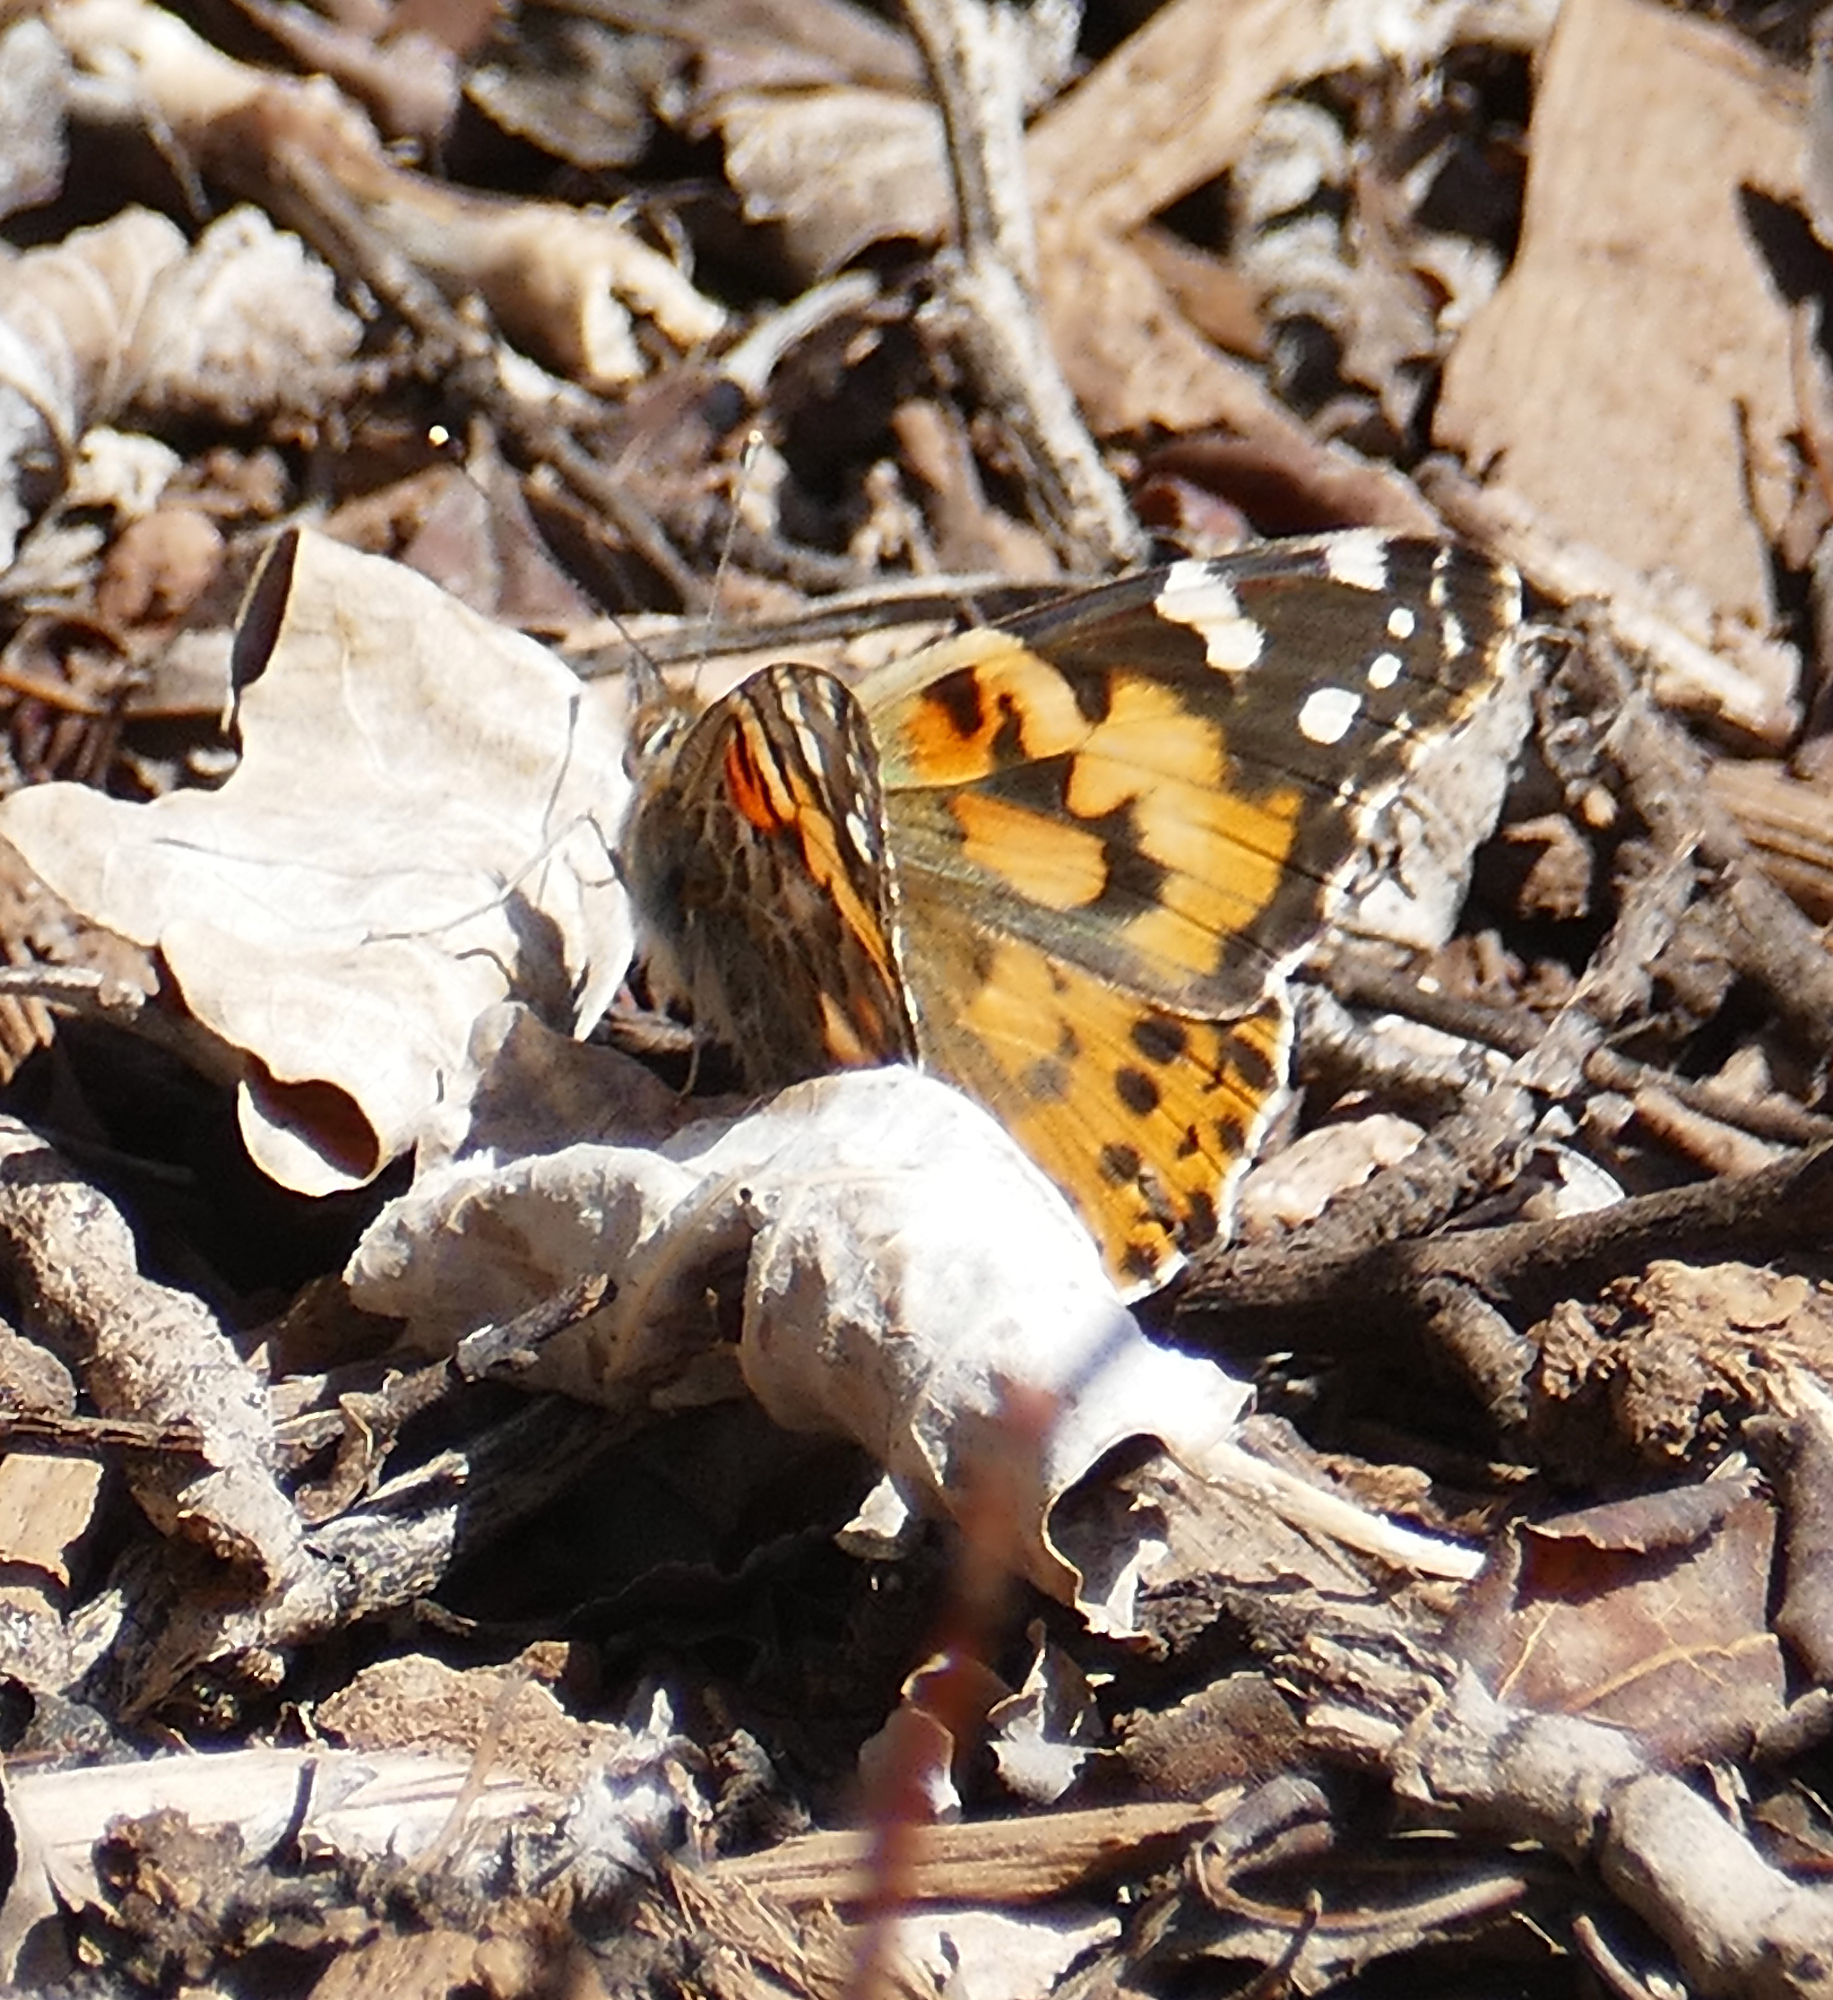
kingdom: Animalia
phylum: Arthropoda
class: Insecta
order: Lepidoptera
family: Nymphalidae
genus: Vanessa
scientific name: Vanessa cardui
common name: Painted lady
